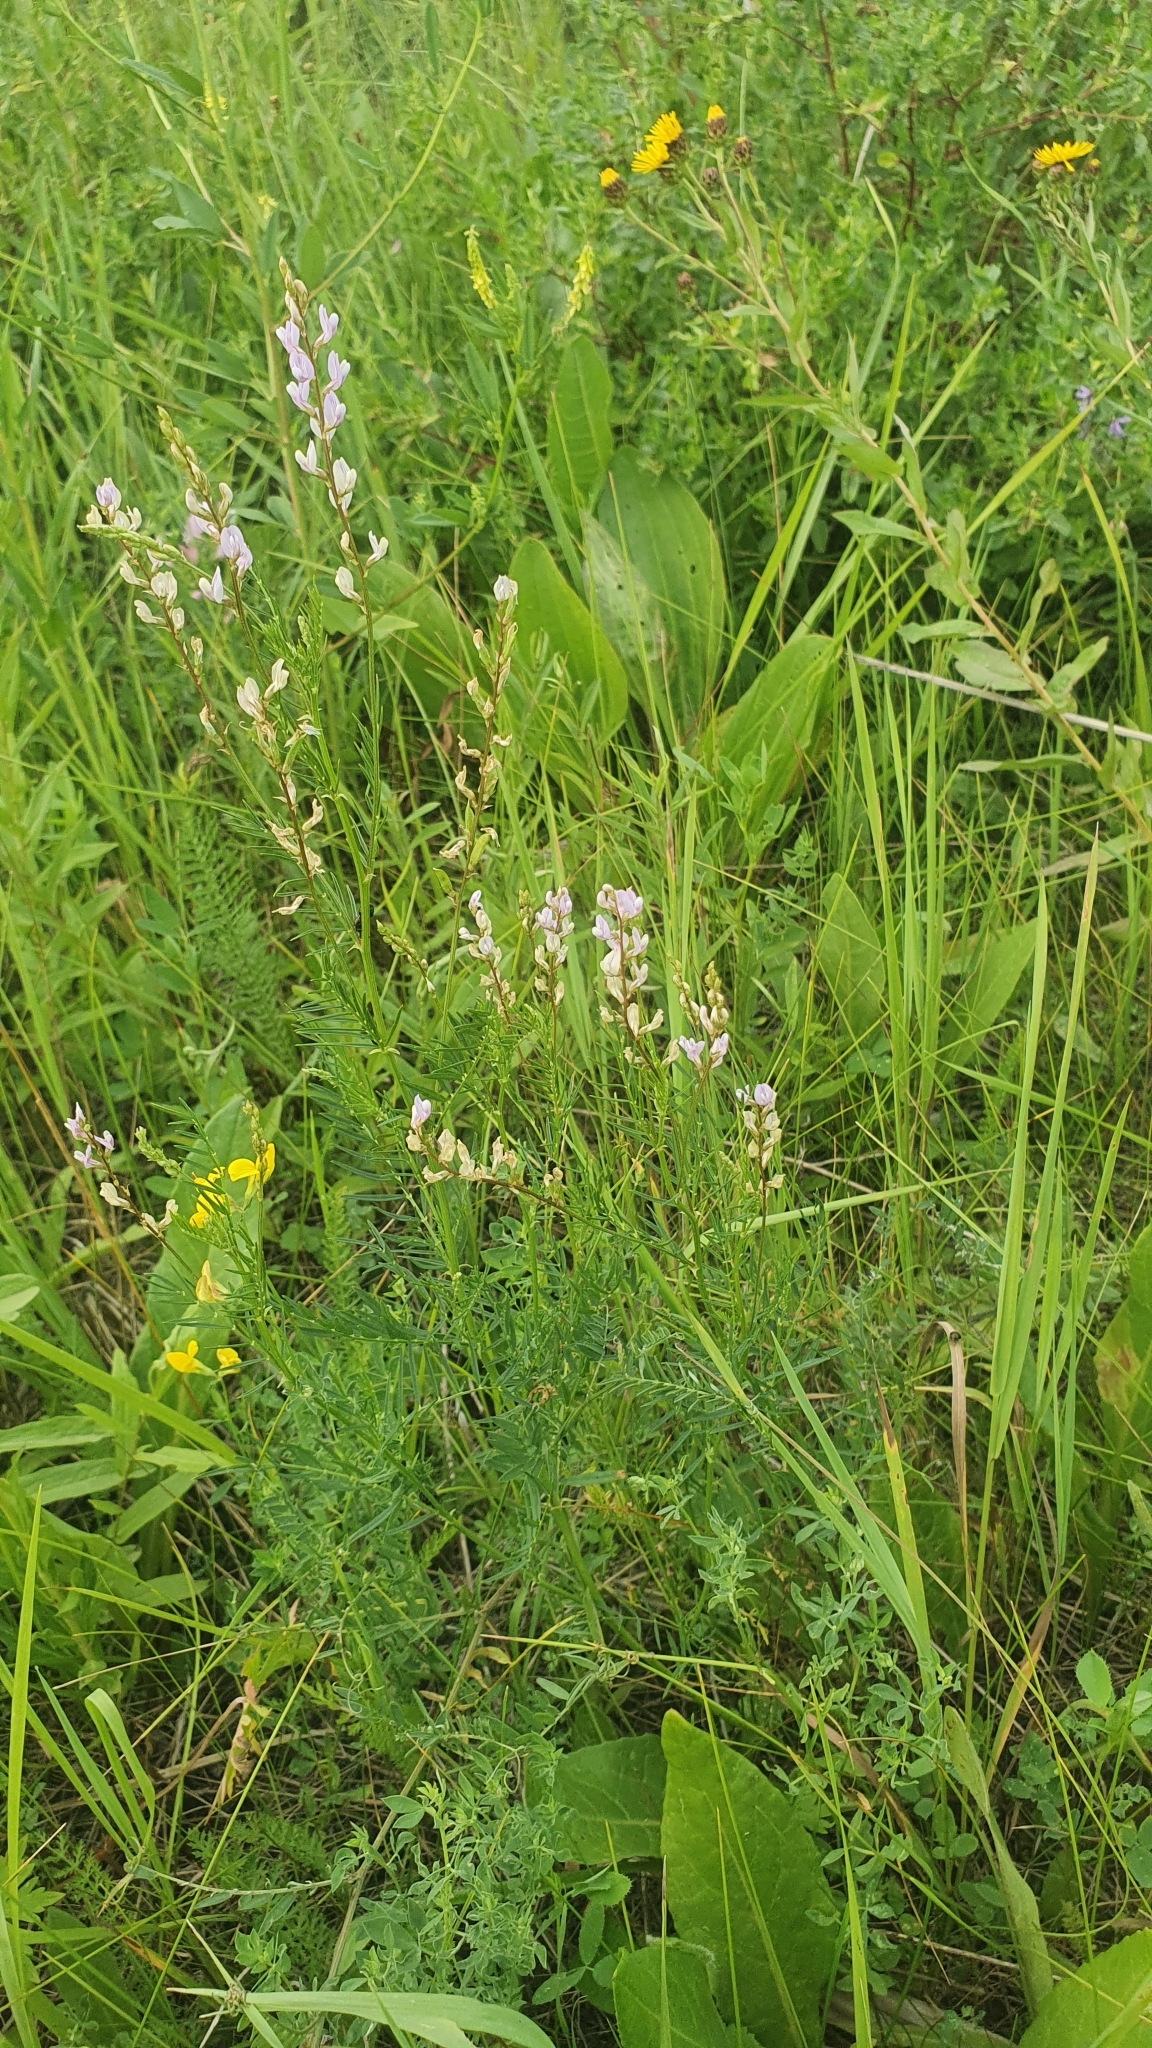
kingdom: Plantae
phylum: Tracheophyta
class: Magnoliopsida
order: Fabales
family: Fabaceae
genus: Astragalus
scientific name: Astragalus sulcatus
